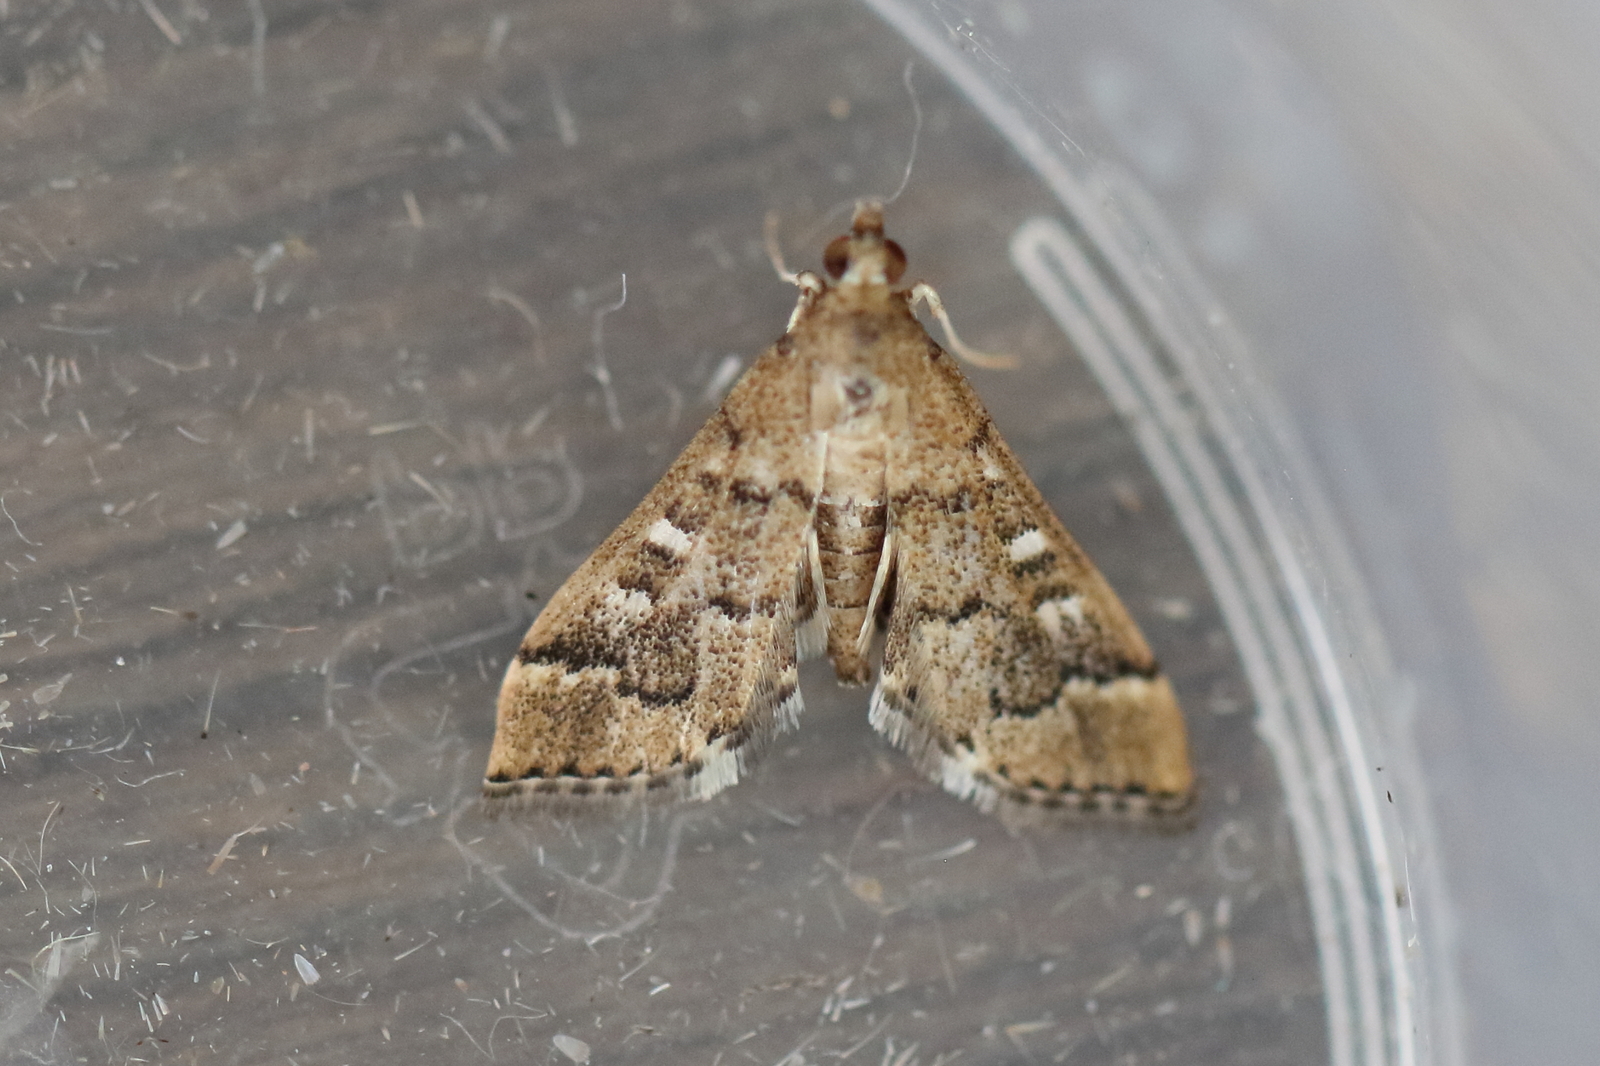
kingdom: Animalia
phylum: Arthropoda
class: Insecta
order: Lepidoptera
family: Crambidae
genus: Nacoleia
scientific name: Nacoleia rhoeoalis
